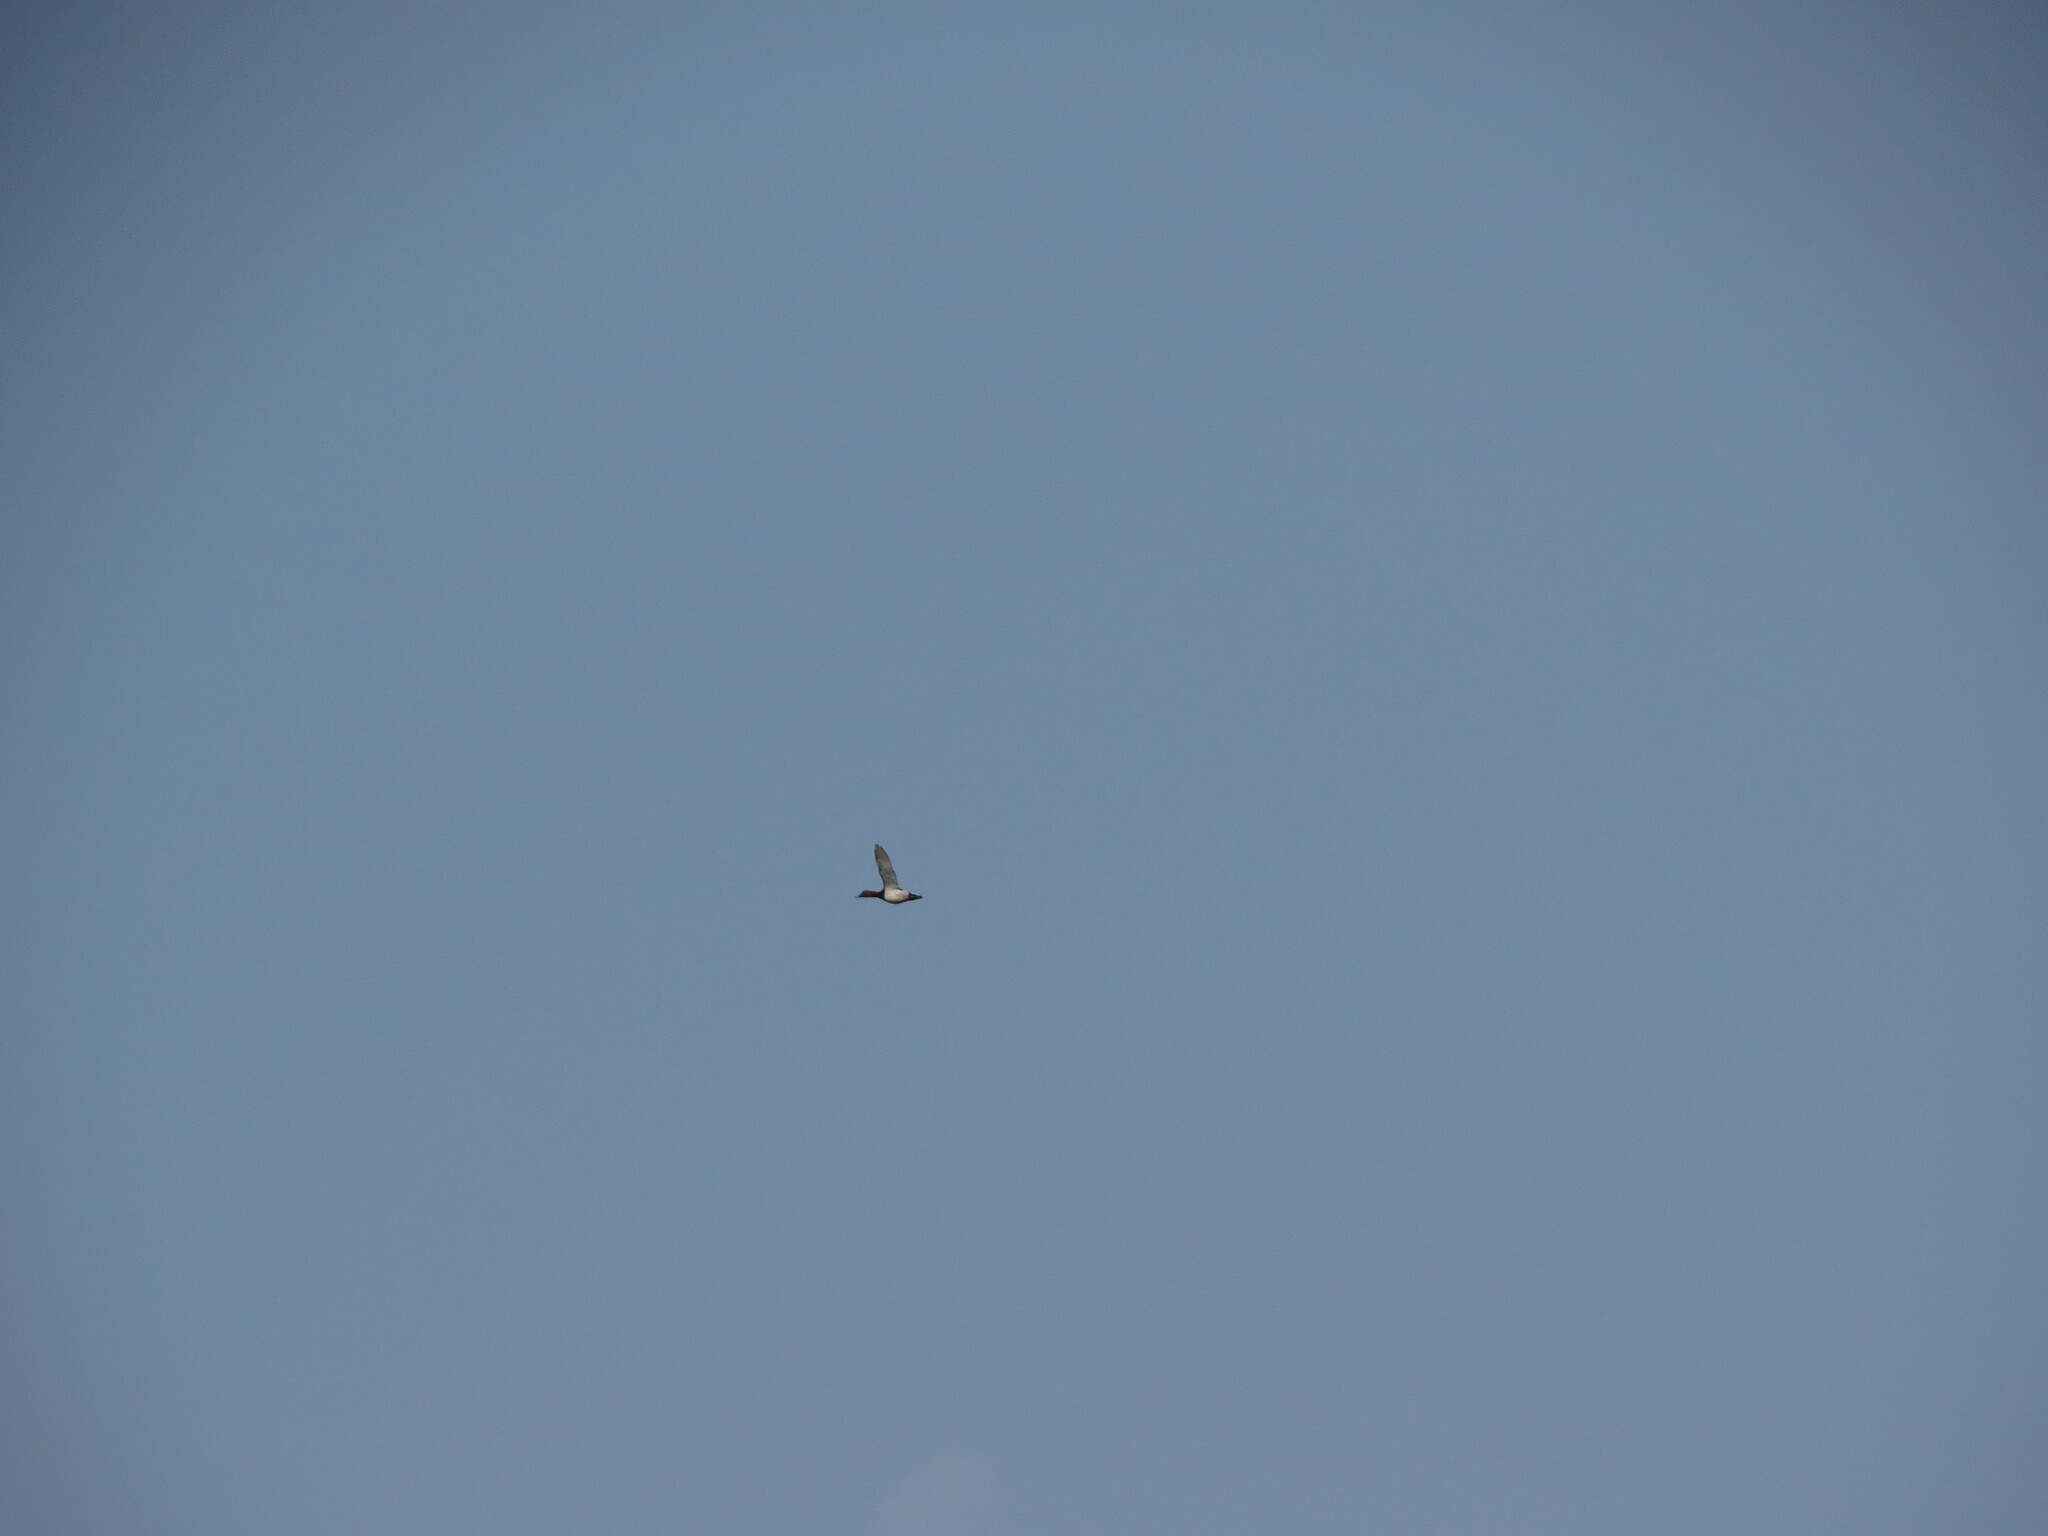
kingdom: Animalia
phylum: Chordata
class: Aves
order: Anseriformes
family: Anatidae
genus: Aythya
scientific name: Aythya ferina
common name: Common pochard
